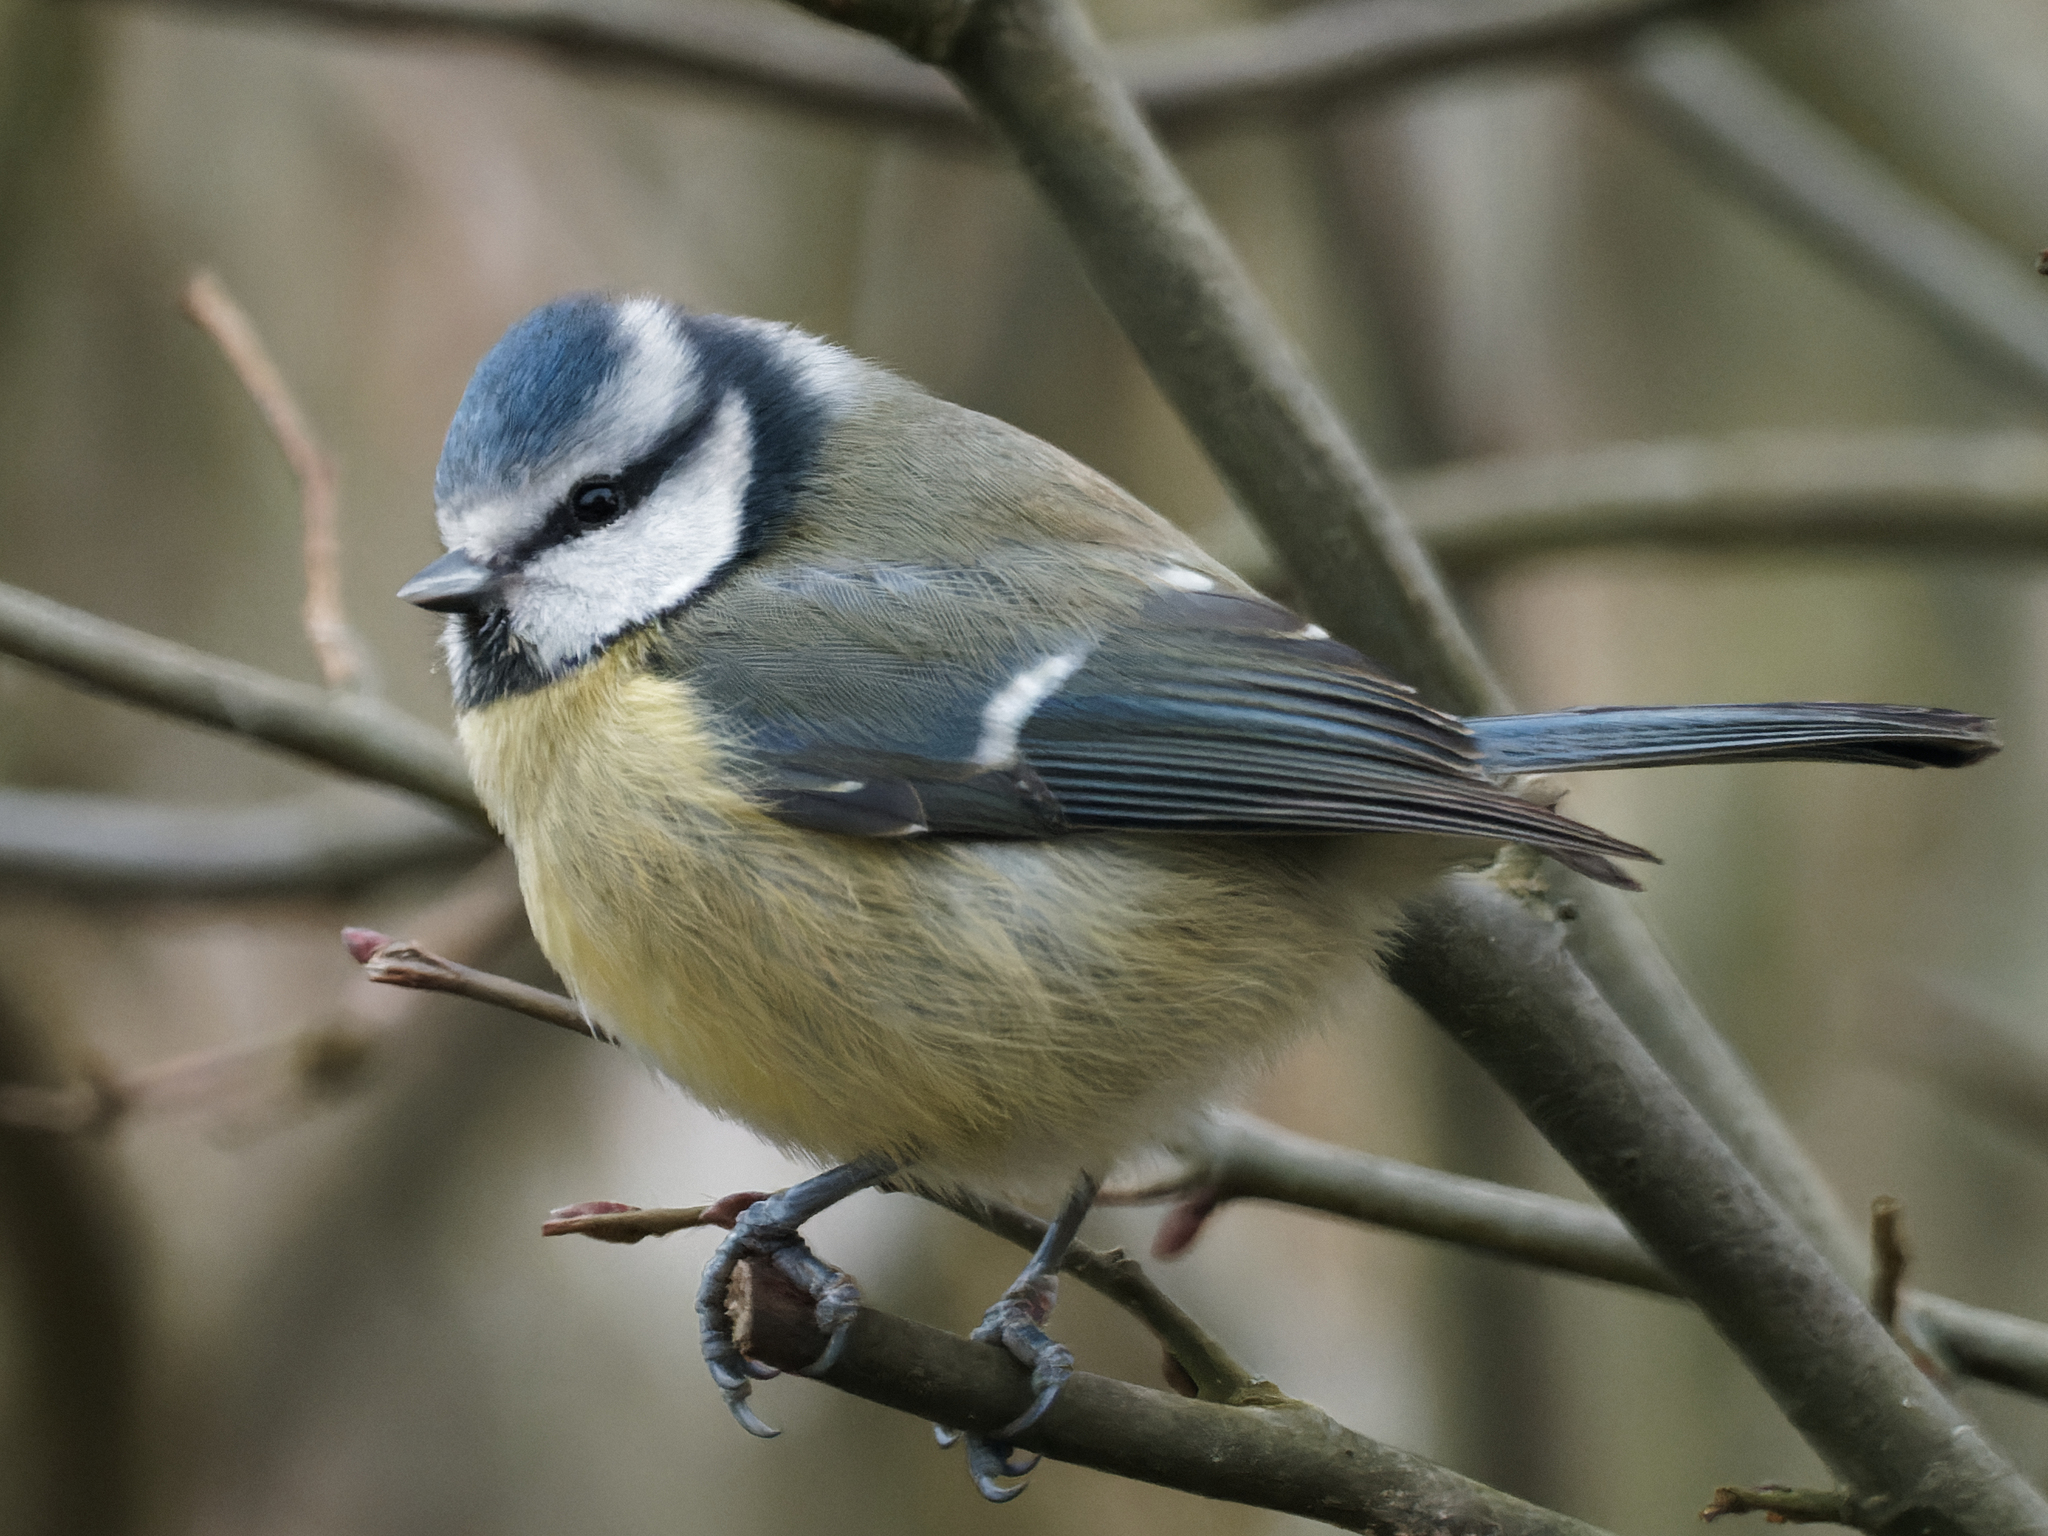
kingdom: Animalia
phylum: Chordata
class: Aves
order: Passeriformes
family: Paridae
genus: Cyanistes
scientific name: Cyanistes caeruleus
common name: Eurasian blue tit
